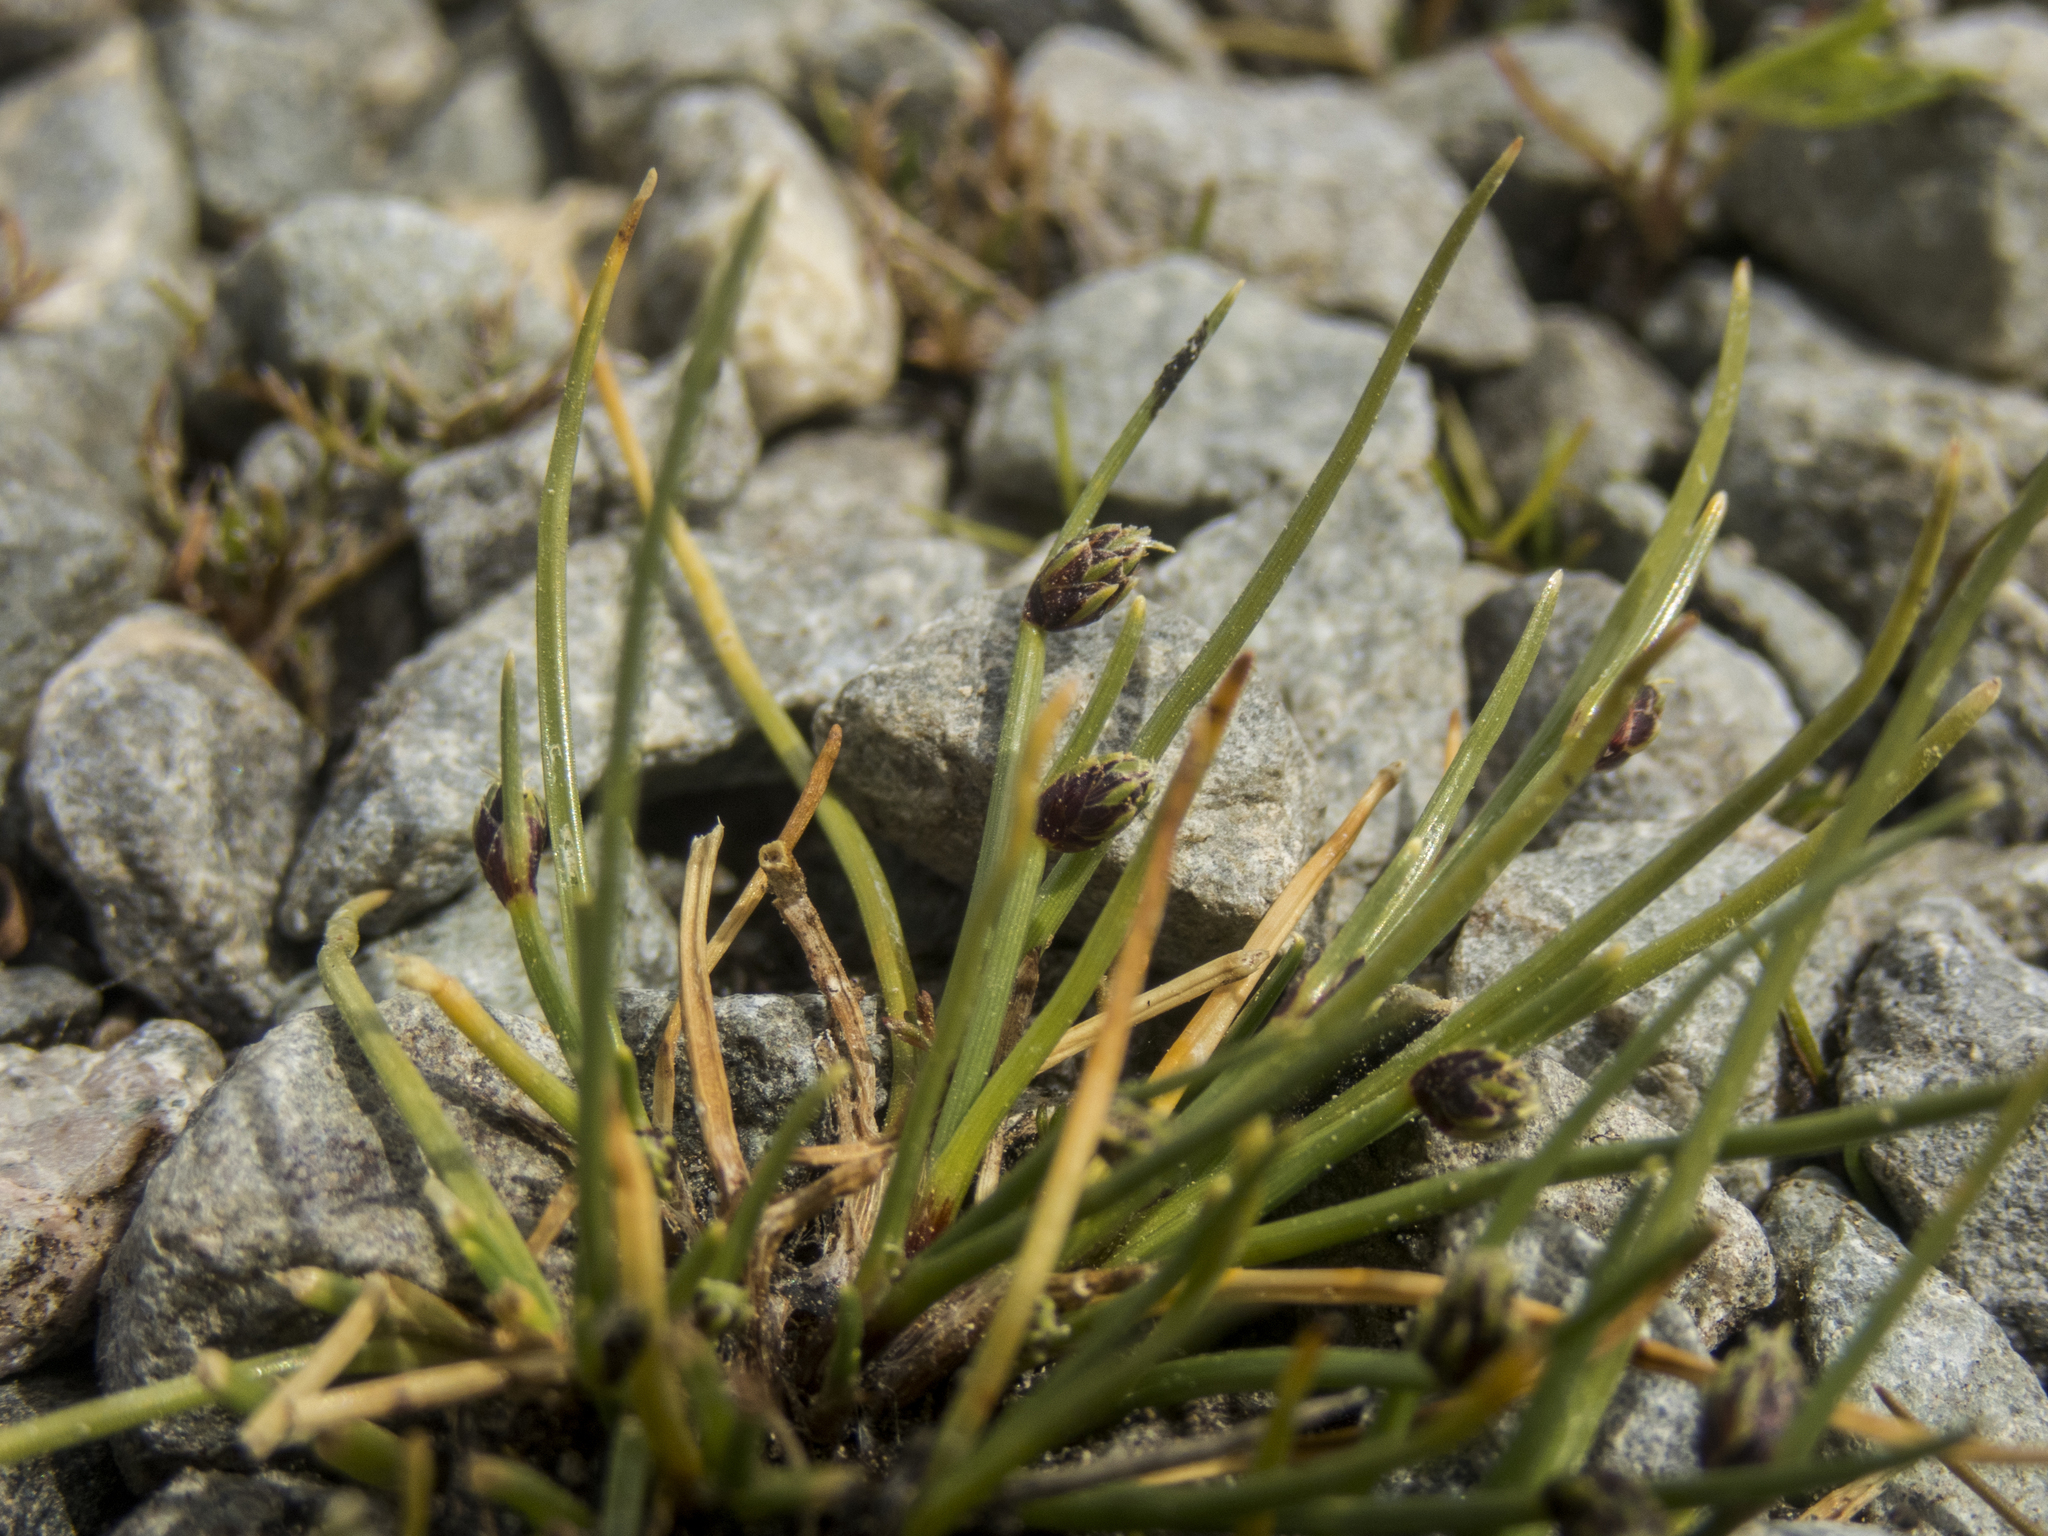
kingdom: Plantae
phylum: Tracheophyta
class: Liliopsida
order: Poales
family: Cyperaceae
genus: Isolepis
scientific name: Isolepis aucklandica
